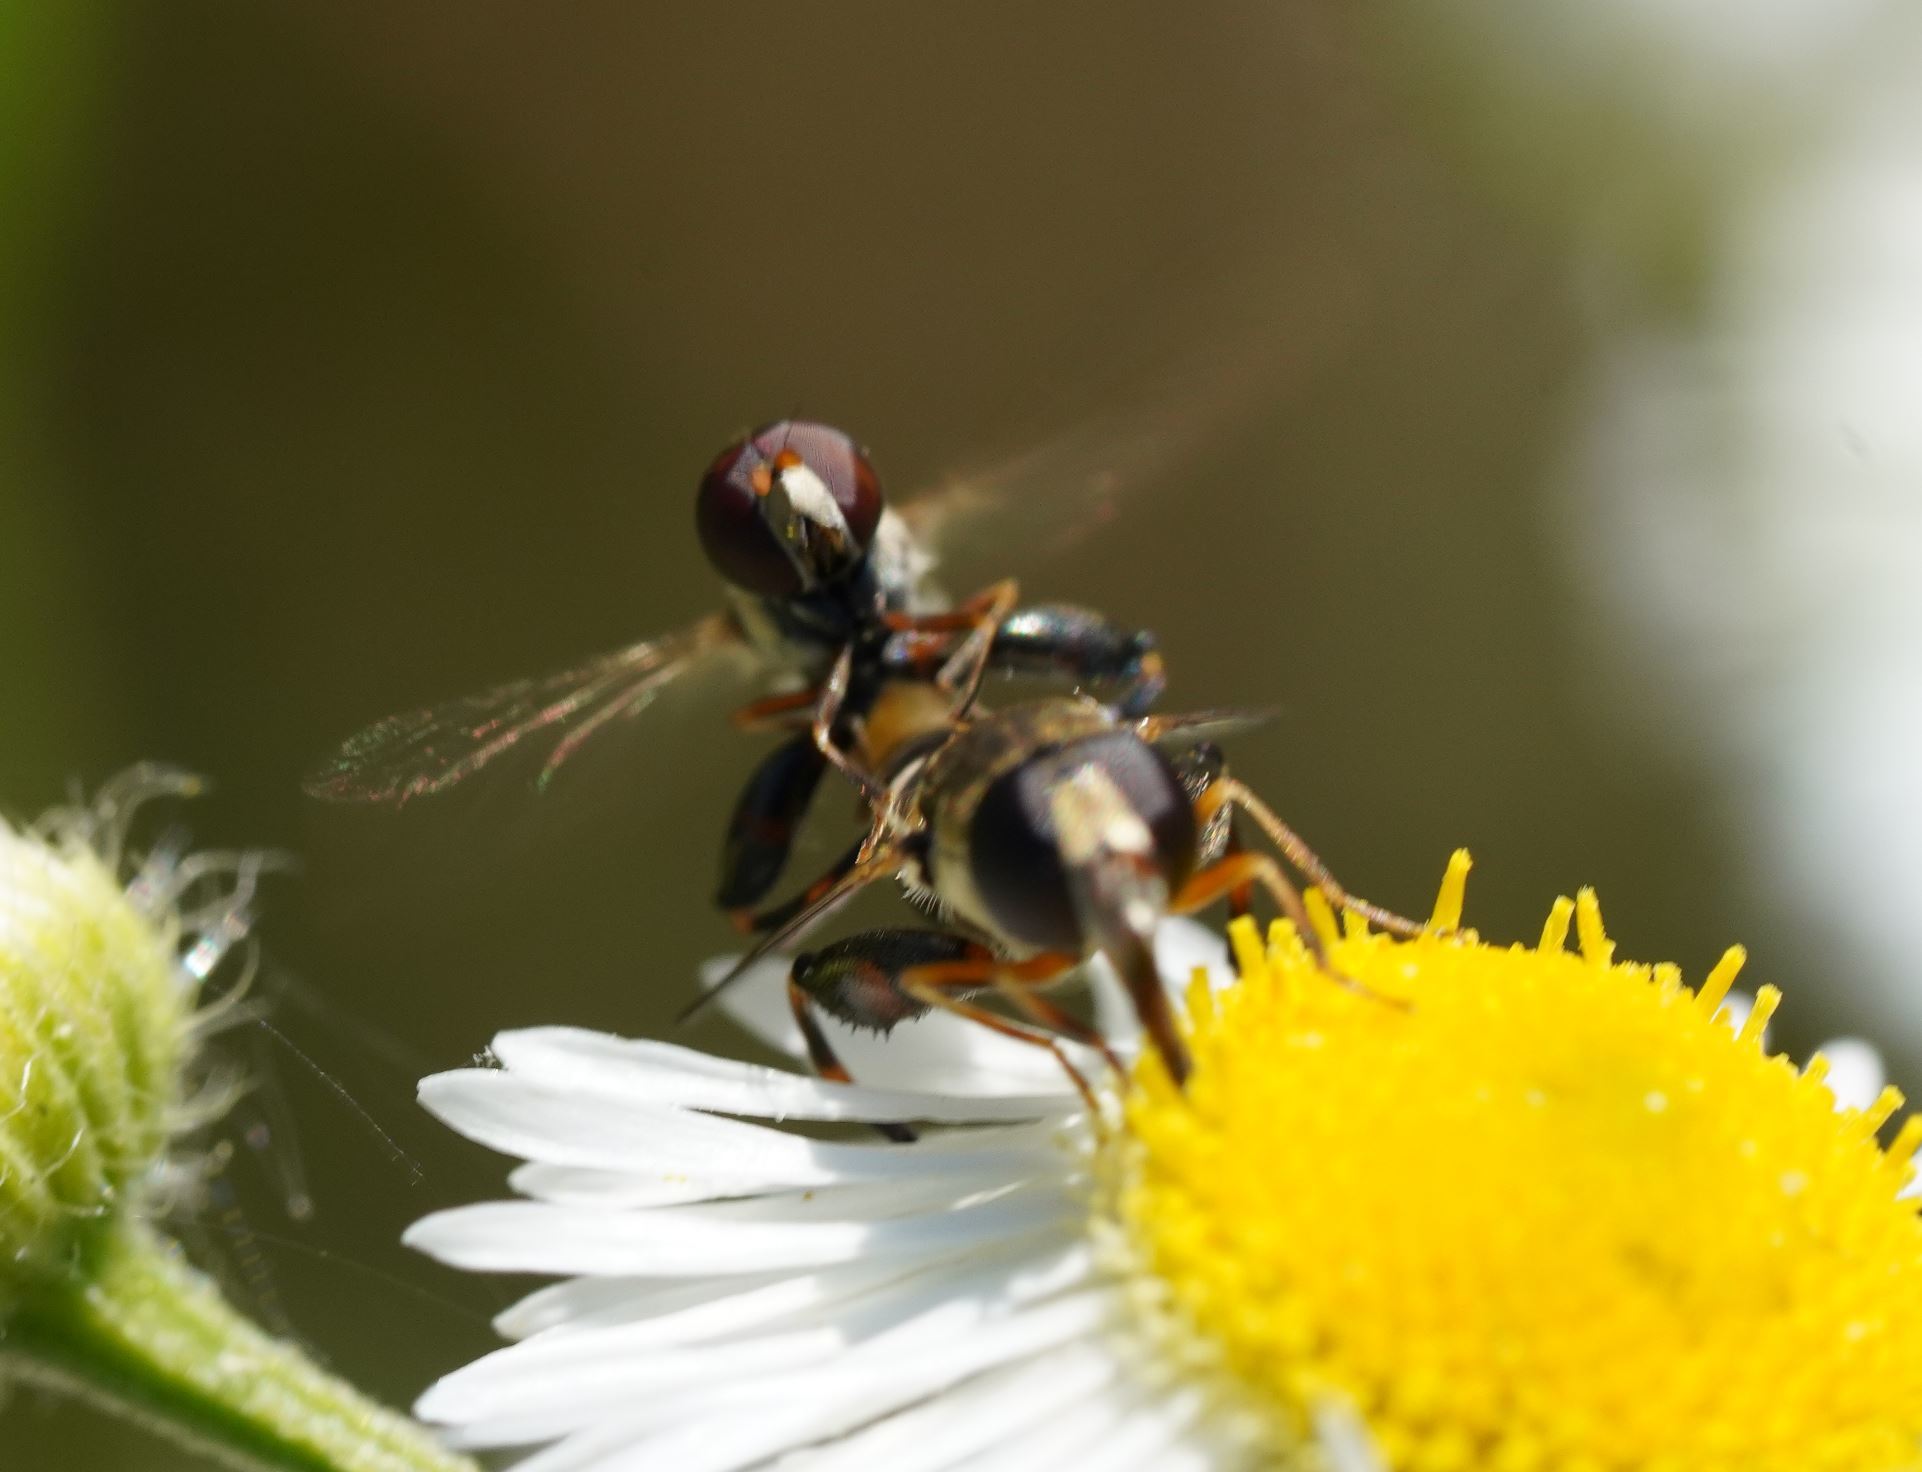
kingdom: Animalia
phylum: Arthropoda
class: Insecta
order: Diptera
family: Syrphidae
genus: Syritta
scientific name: Syritta pipiens
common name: Hover fly
